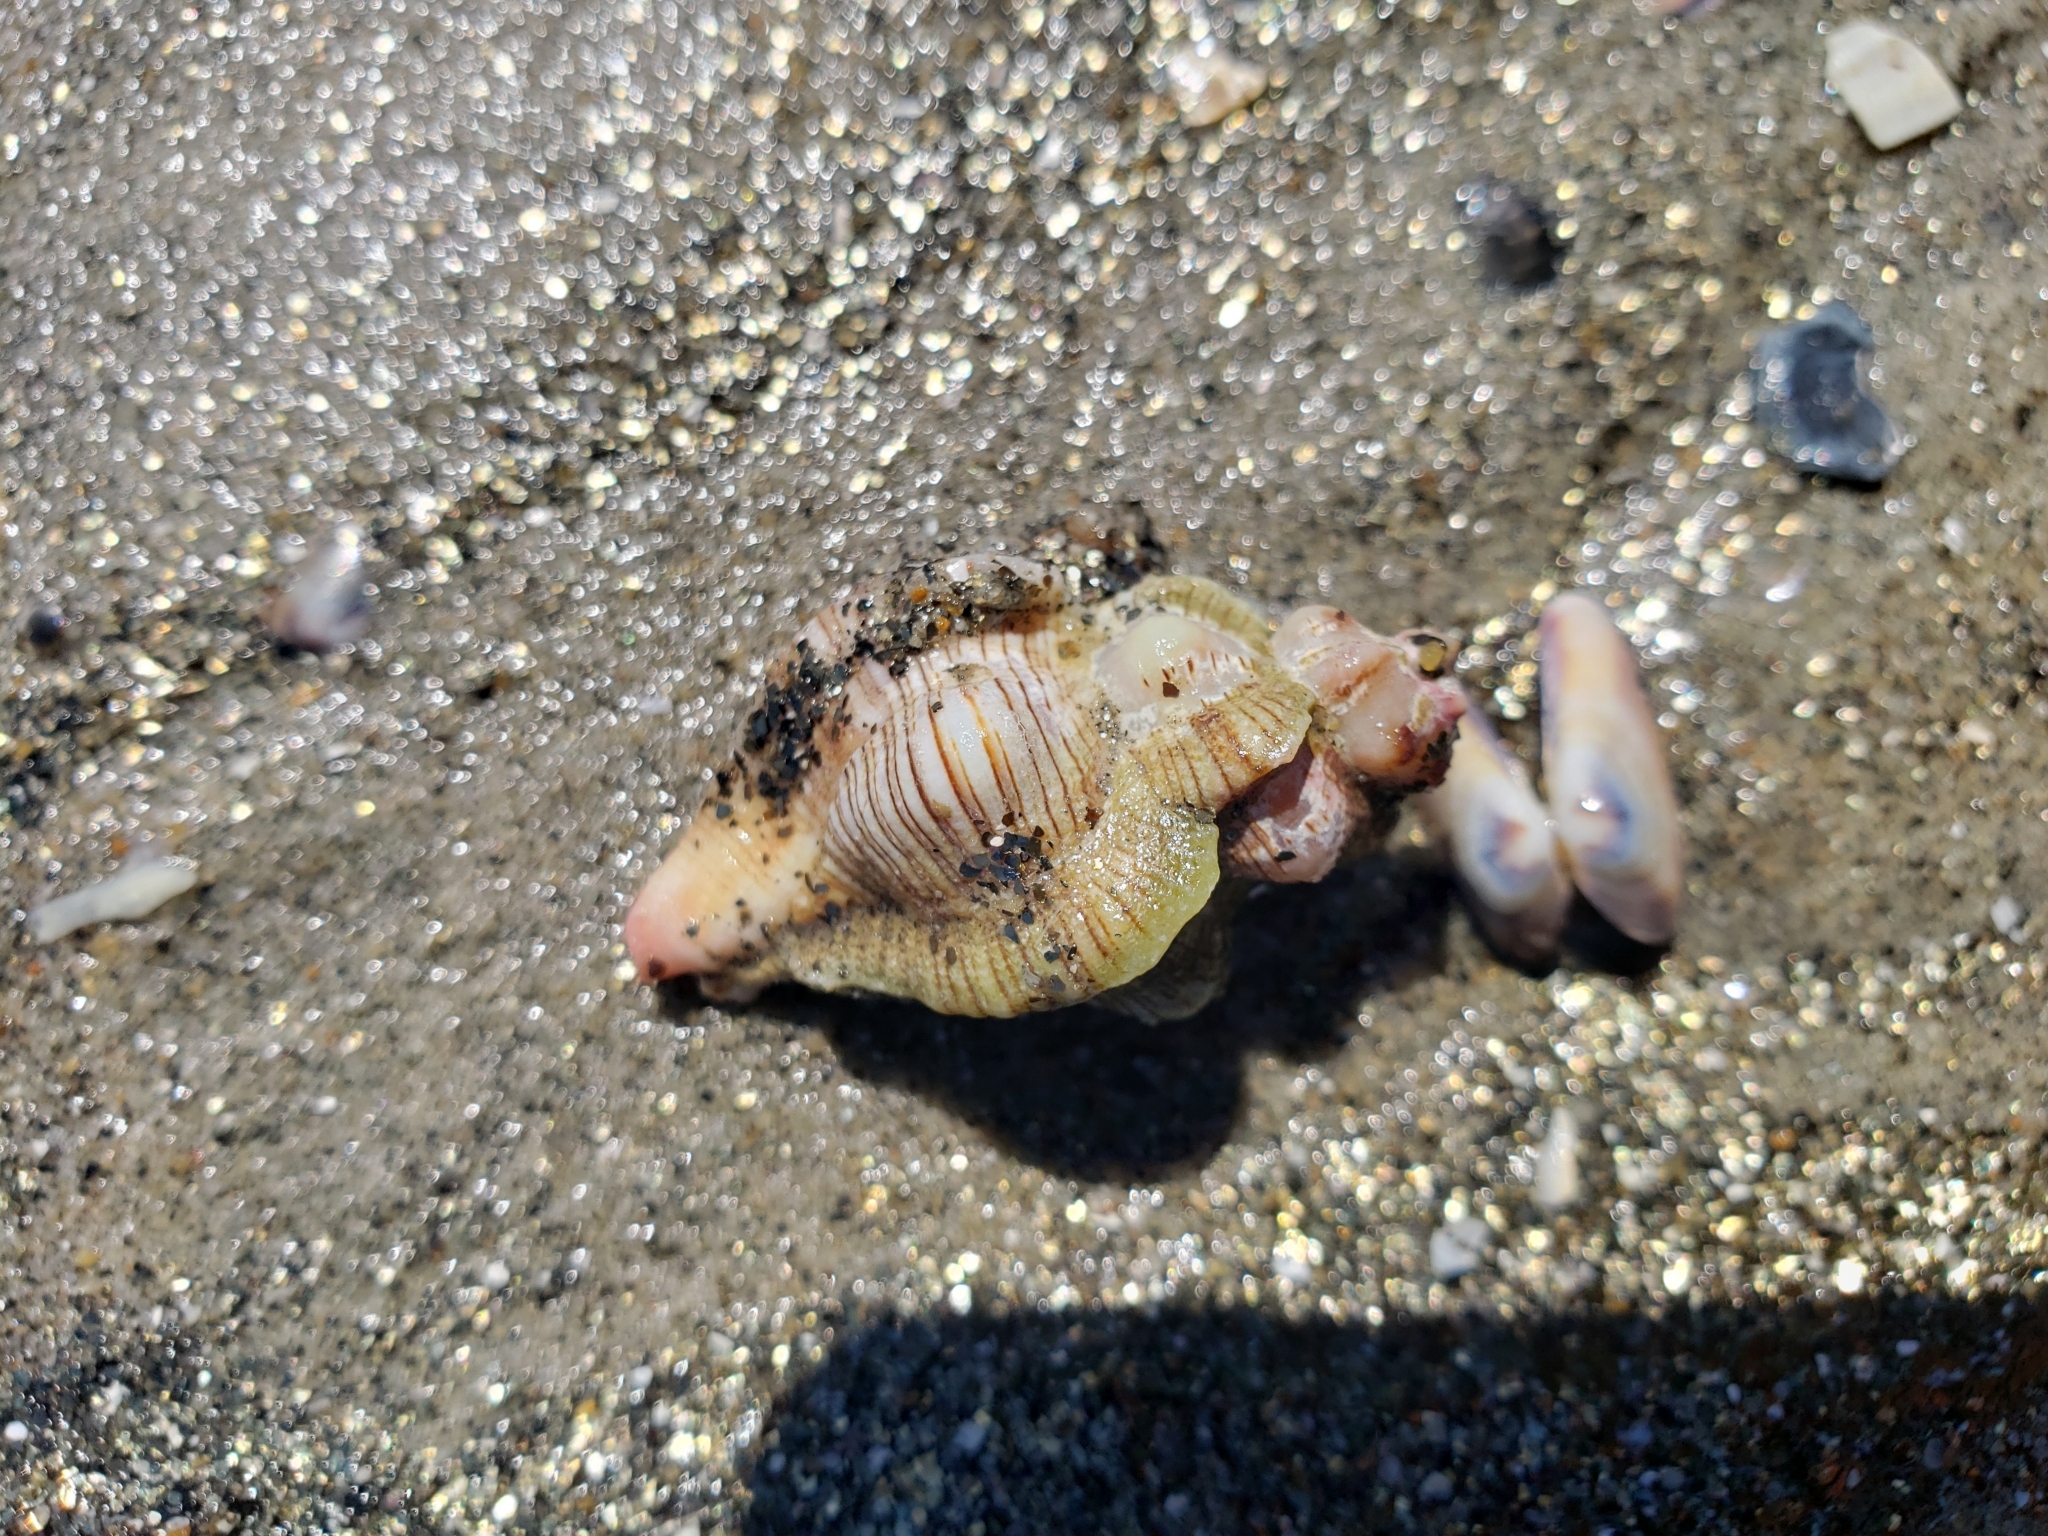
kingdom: Animalia
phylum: Mollusca
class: Gastropoda
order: Neogastropoda
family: Muricidae
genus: Pteropurpura
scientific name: Pteropurpura festiva
